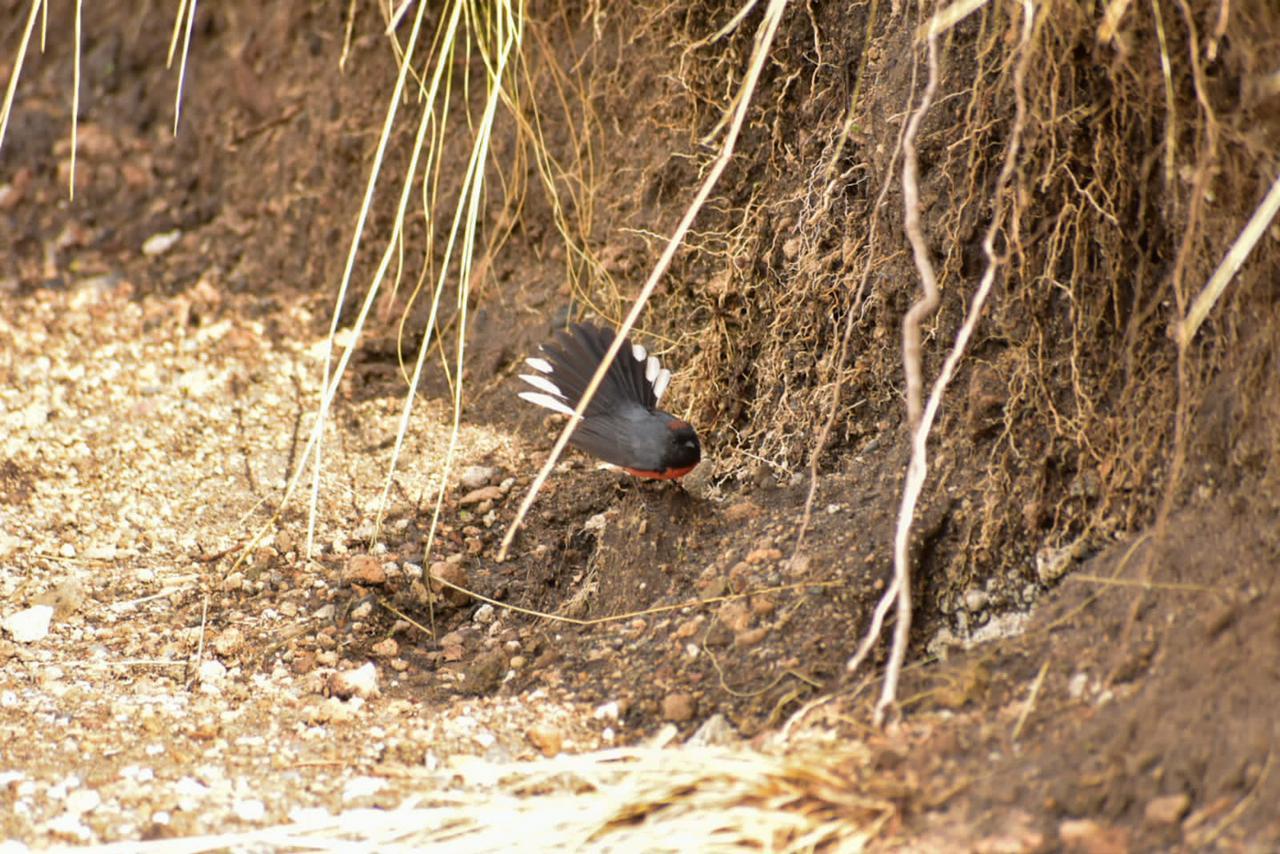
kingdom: Animalia
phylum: Chordata
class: Aves
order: Passeriformes
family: Parulidae
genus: Myioborus
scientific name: Myioborus miniatus
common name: Slate-throated redstart
